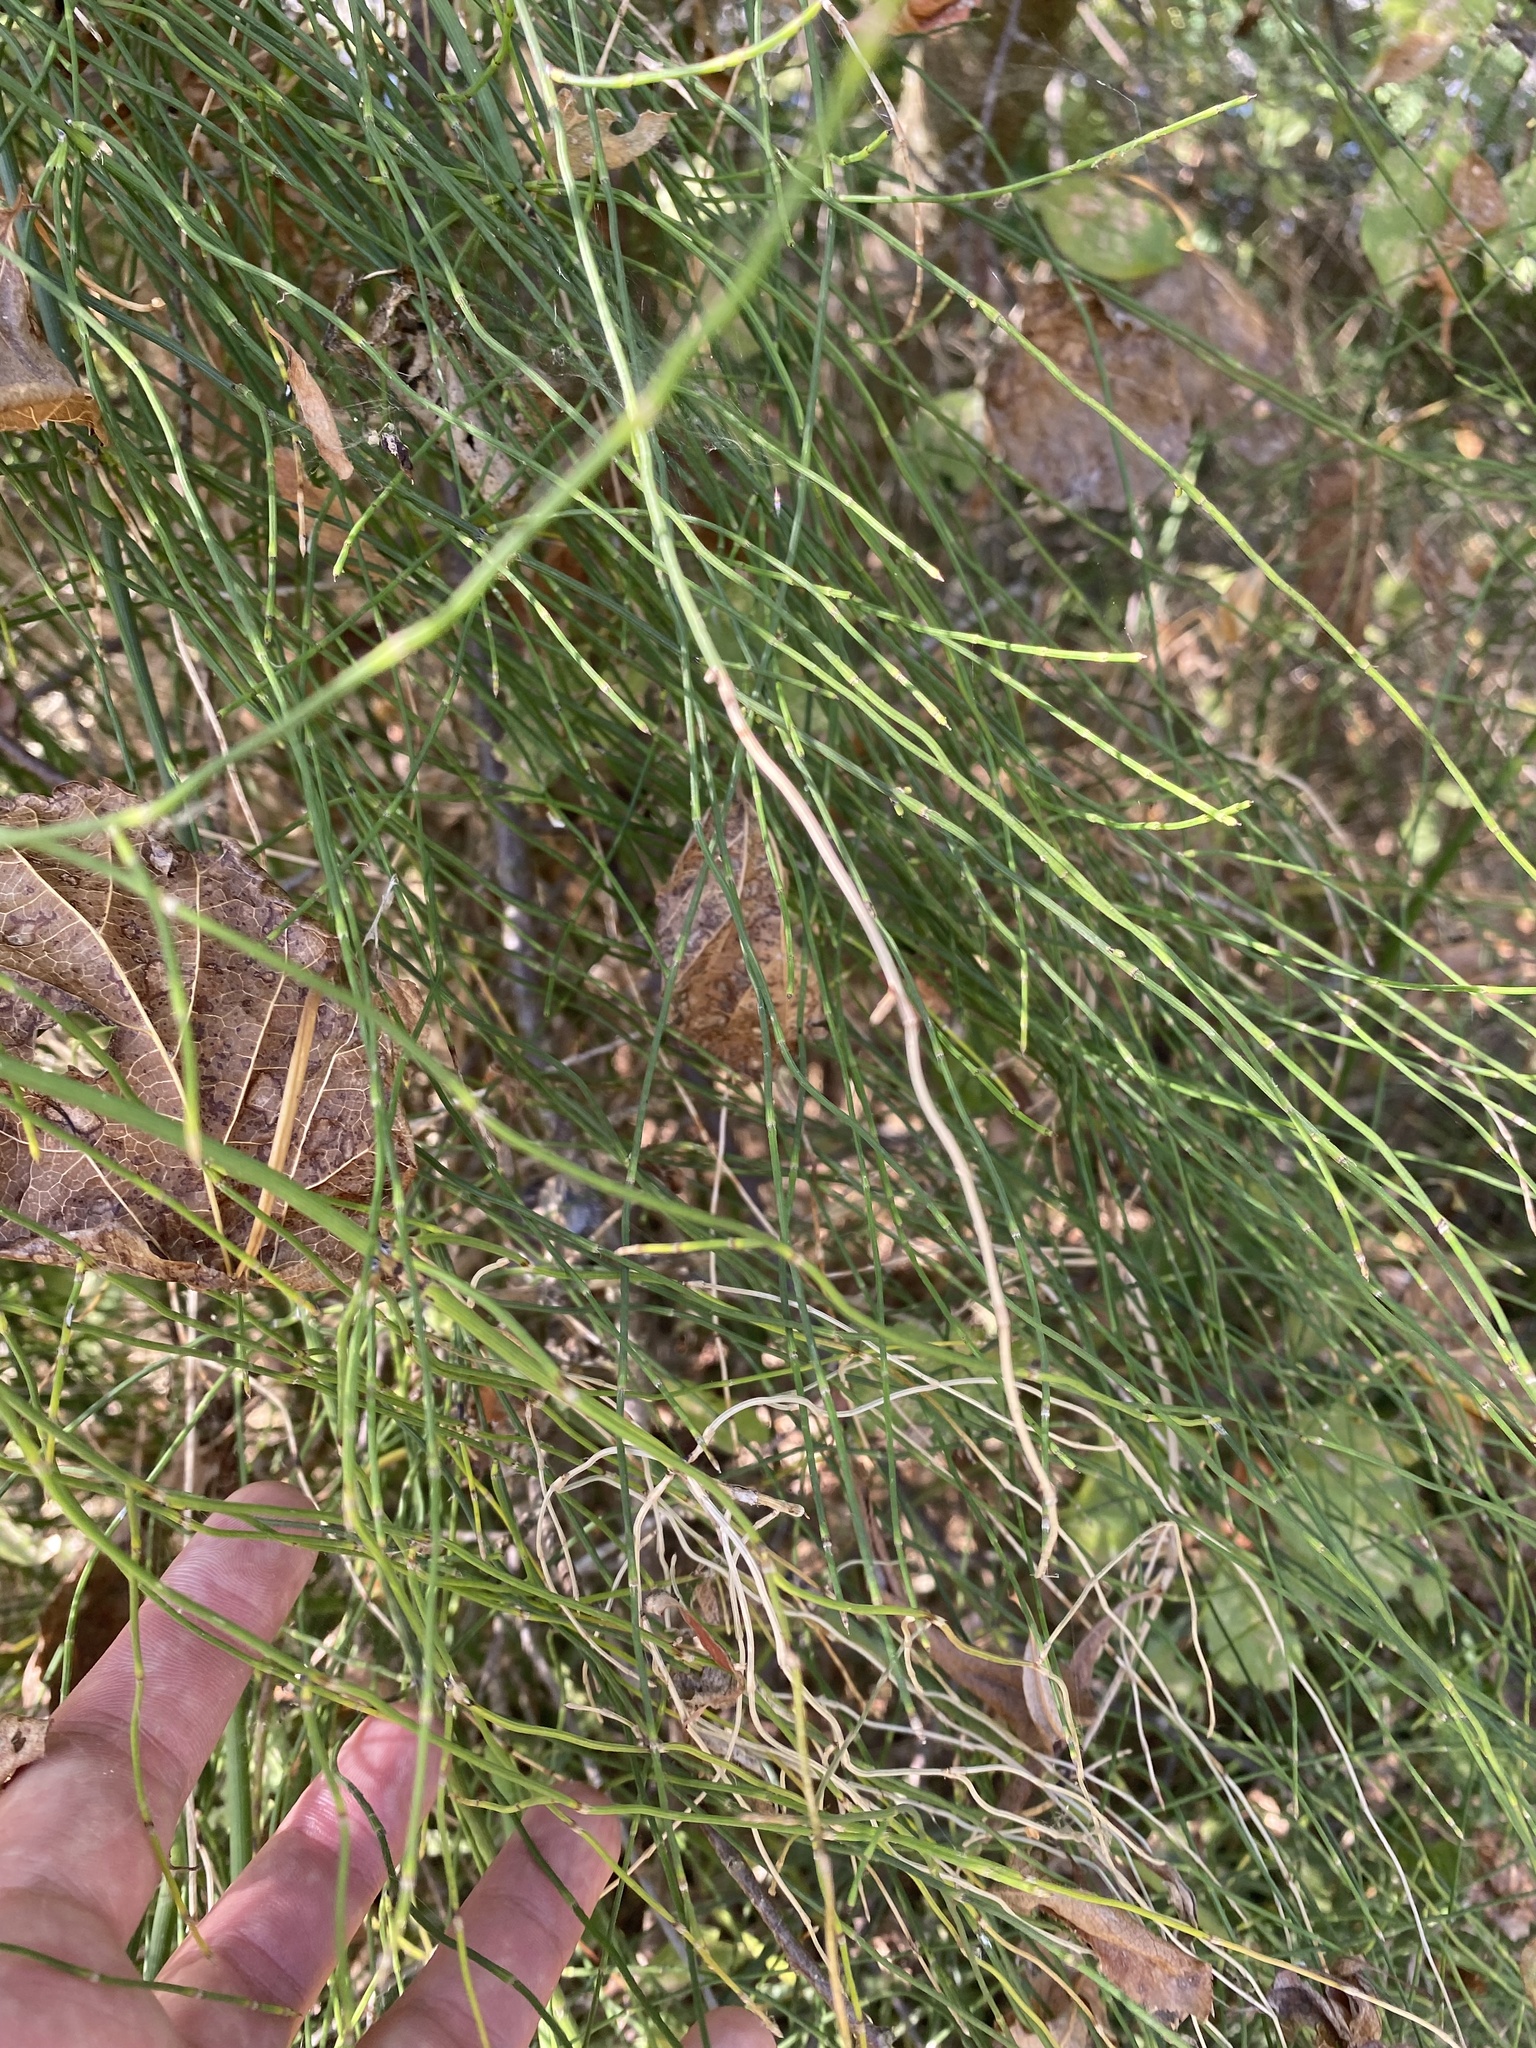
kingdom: Plantae
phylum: Tracheophyta
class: Polypodiopsida
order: Equisetales
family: Equisetaceae
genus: Equisetum
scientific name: Equisetum ramosissimum
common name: Branched horsetail
